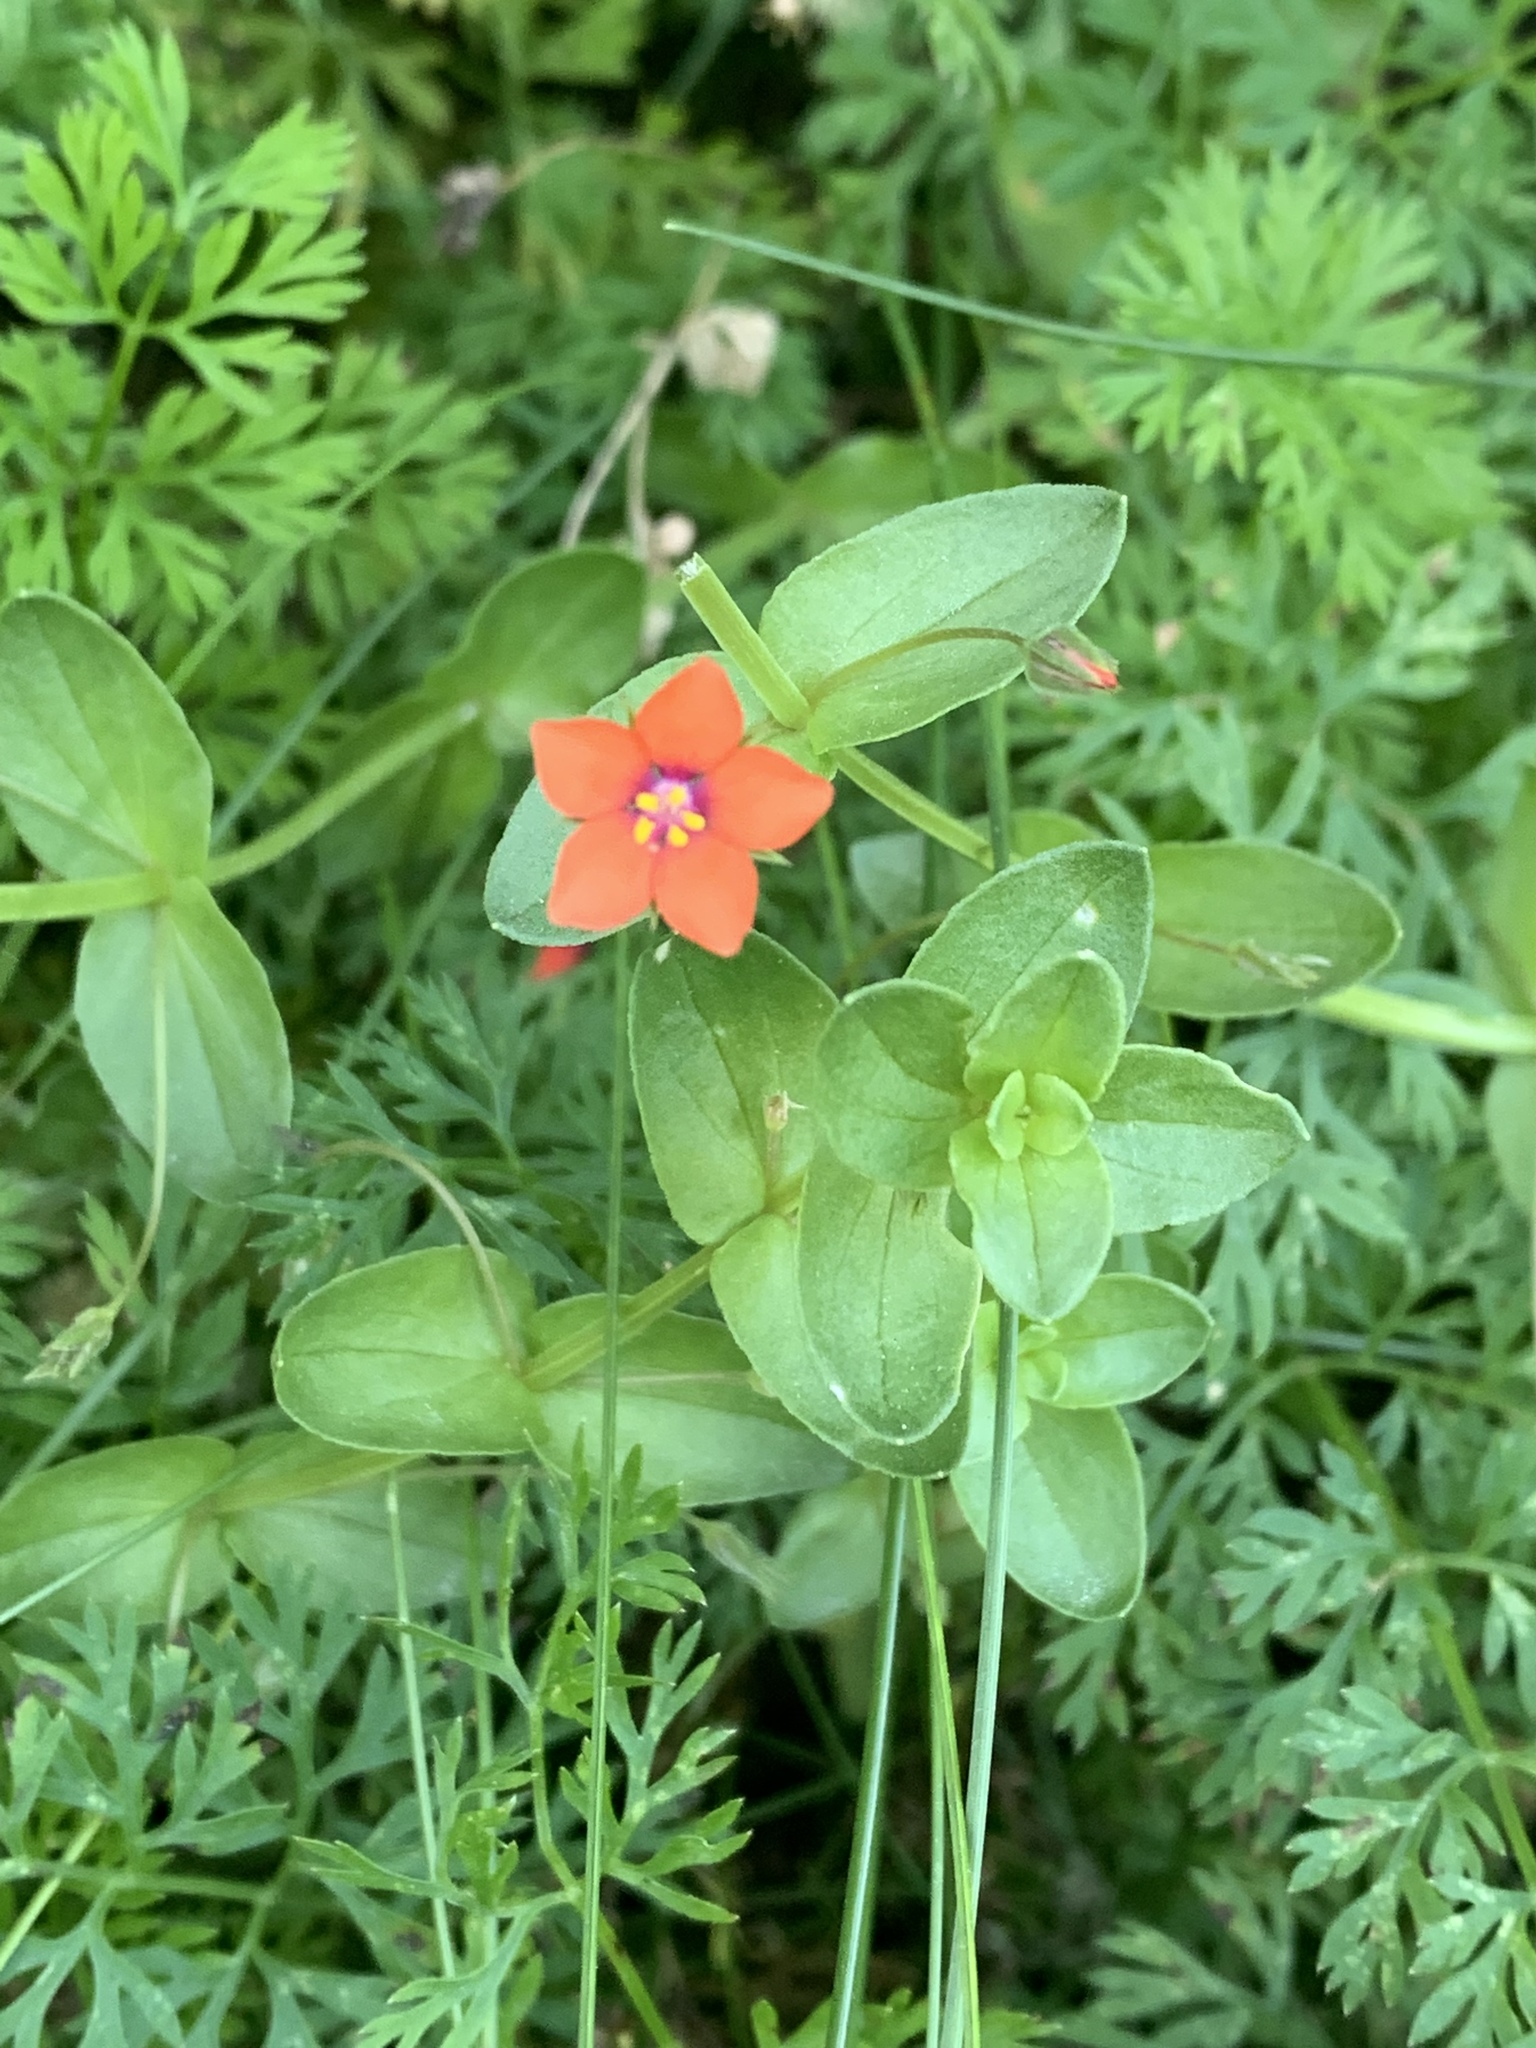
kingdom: Plantae
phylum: Tracheophyta
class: Magnoliopsida
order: Ericales
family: Primulaceae
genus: Lysimachia
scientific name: Lysimachia arvensis
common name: Scarlet pimpernel
